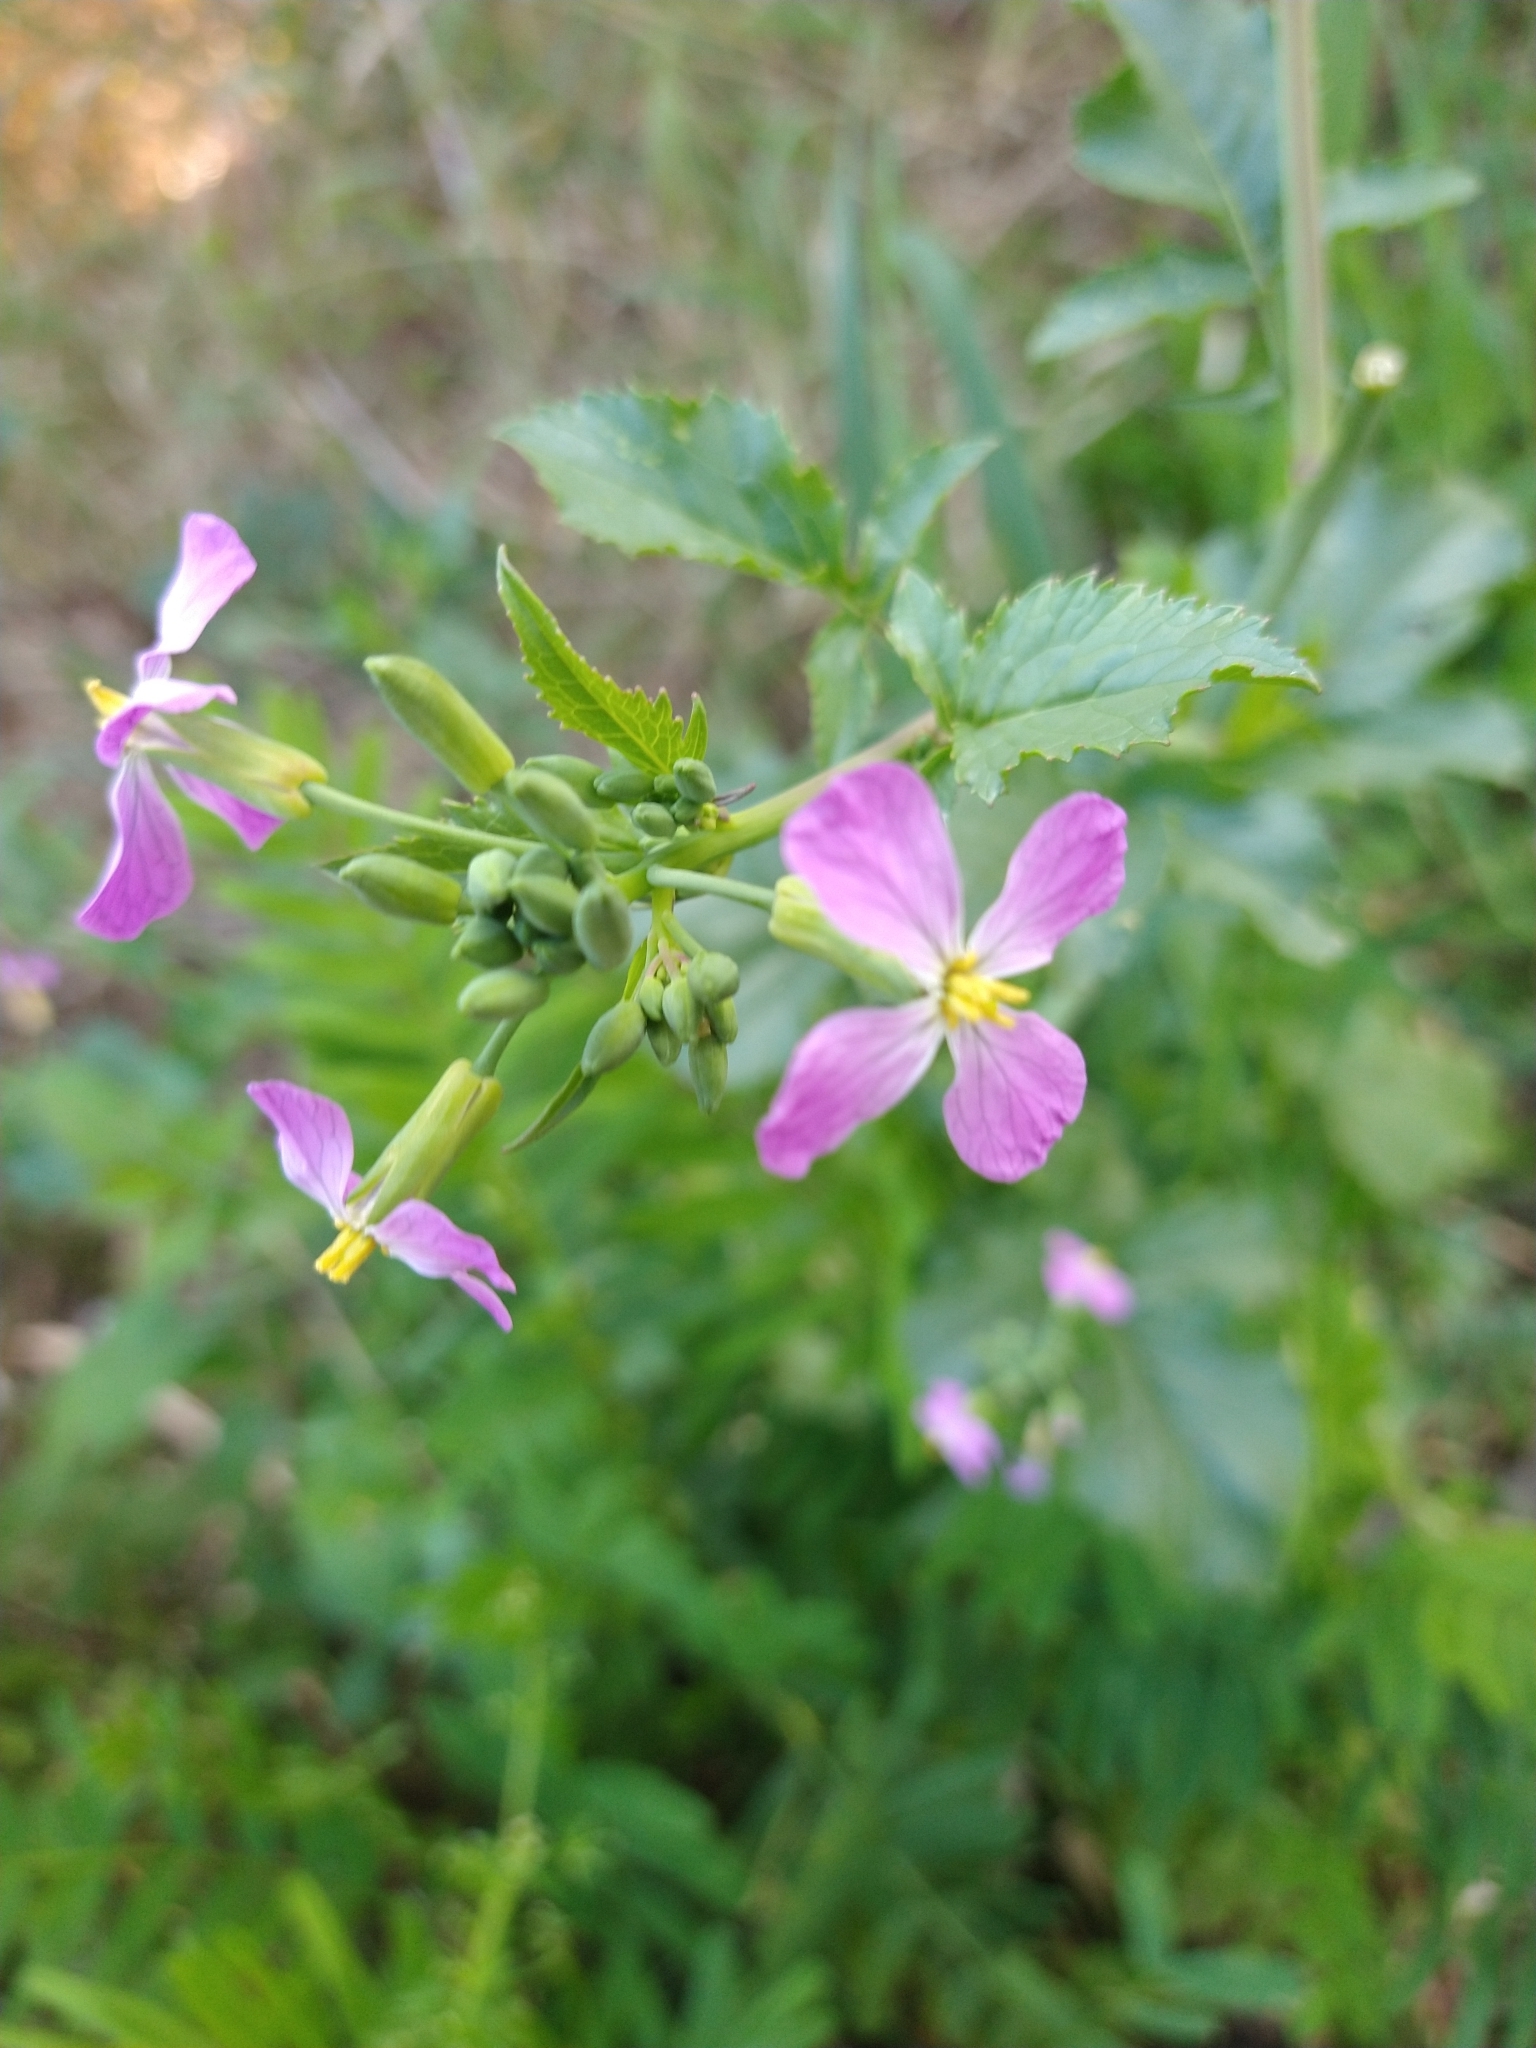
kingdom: Plantae
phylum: Tracheophyta
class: Magnoliopsida
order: Brassicales
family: Brassicaceae
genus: Raphanus
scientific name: Raphanus sativus
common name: Cultivated radish
